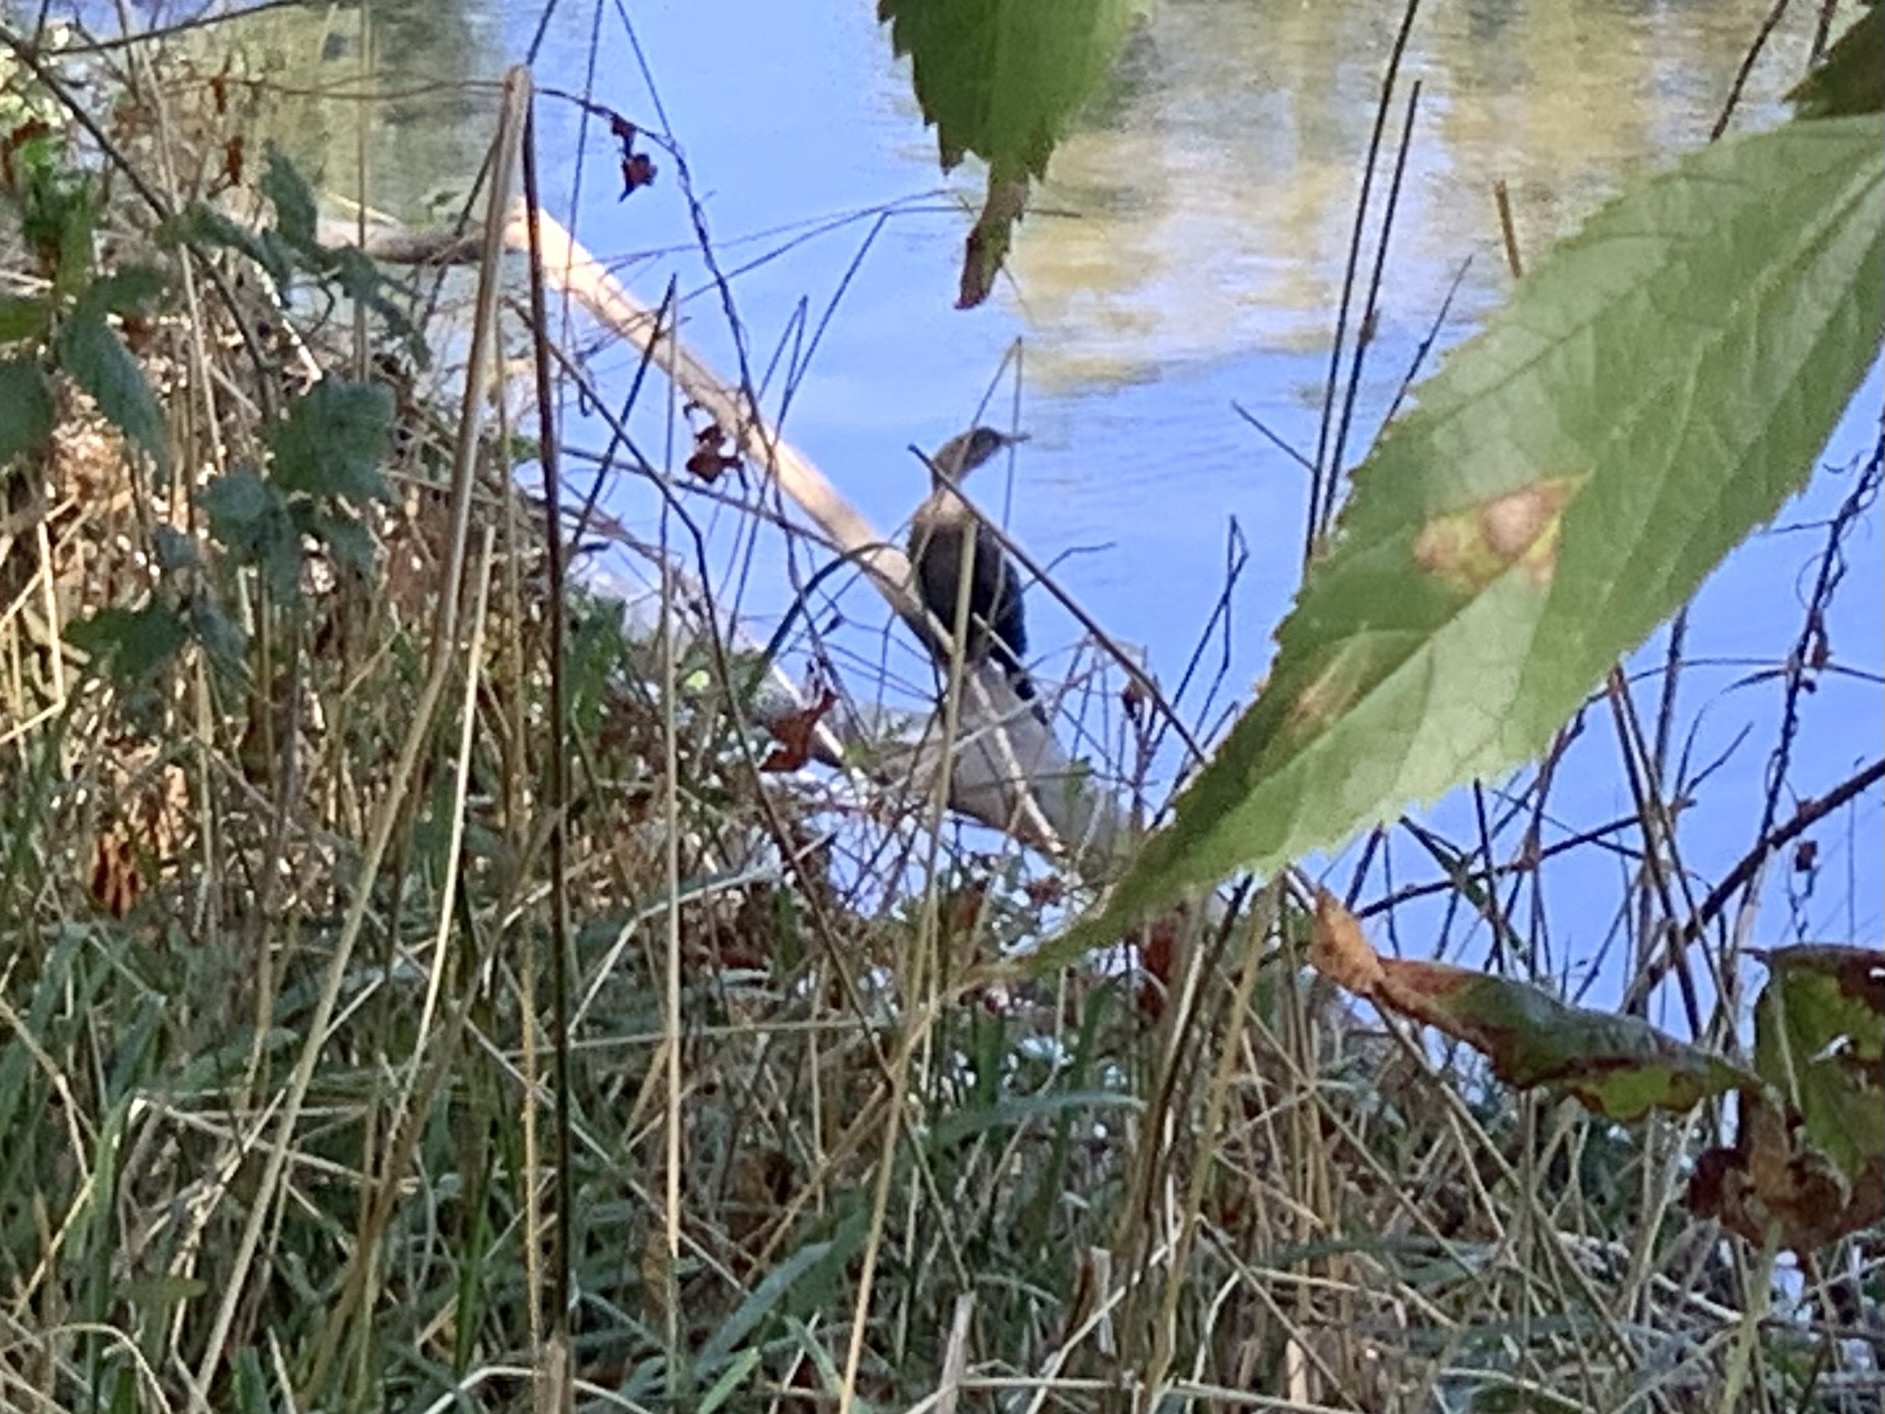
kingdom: Animalia
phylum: Chordata
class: Aves
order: Suliformes
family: Phalacrocoracidae
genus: Microcarbo
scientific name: Microcarbo pygmaeus
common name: Pygmy cormorant
